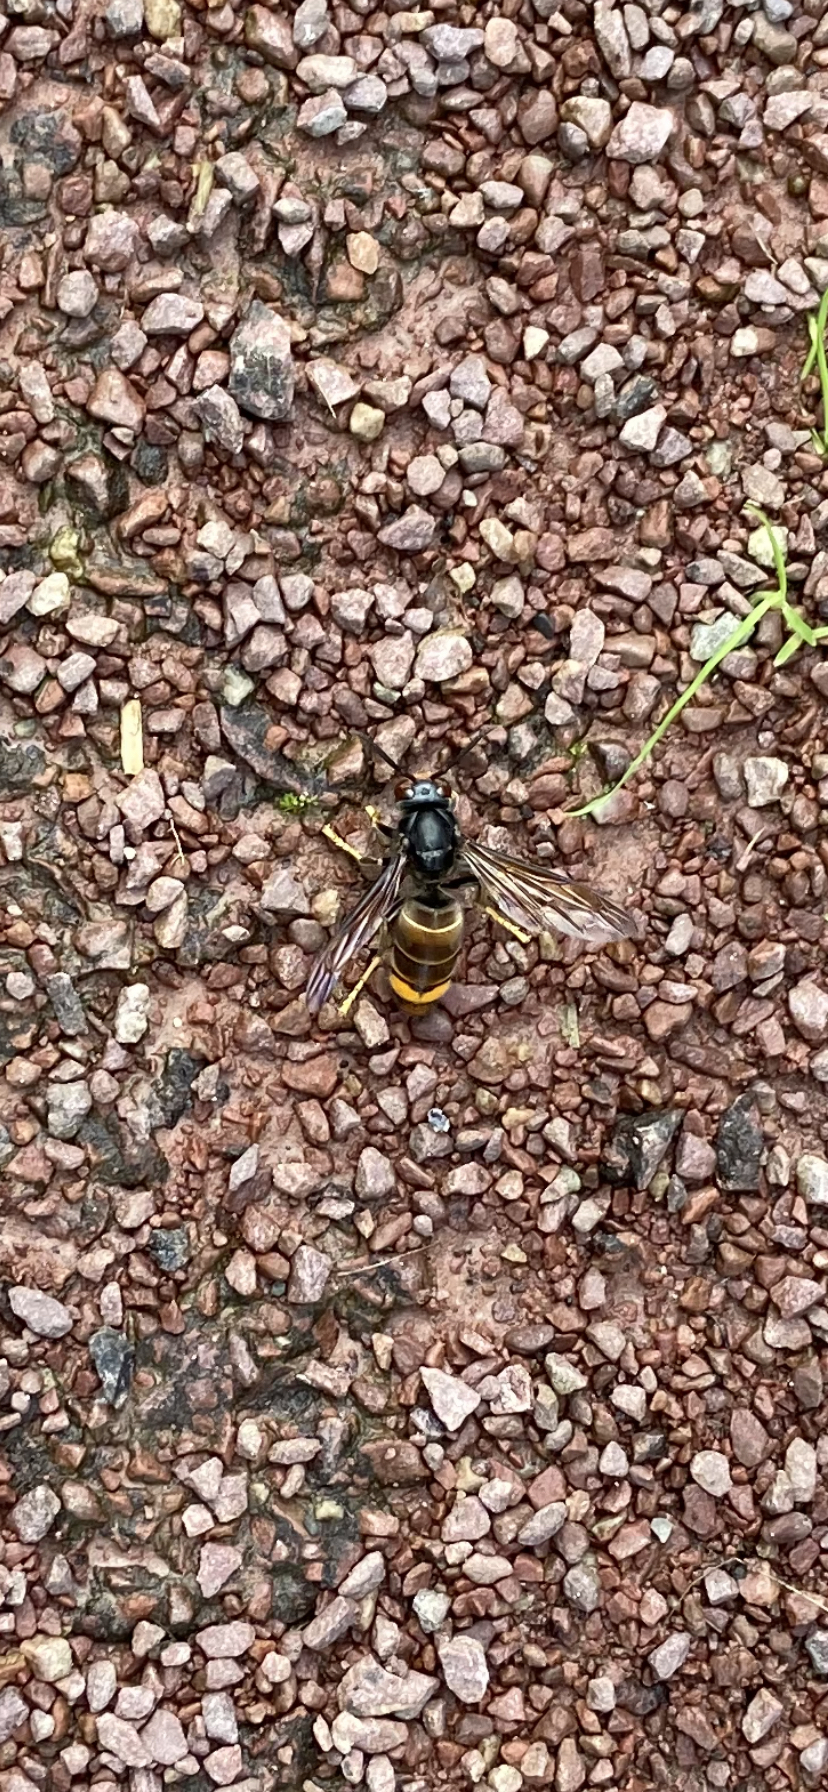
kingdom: Animalia
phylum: Arthropoda
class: Insecta
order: Hymenoptera
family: Vespidae
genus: Vespa
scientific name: Vespa velutina
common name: Asian hornet
